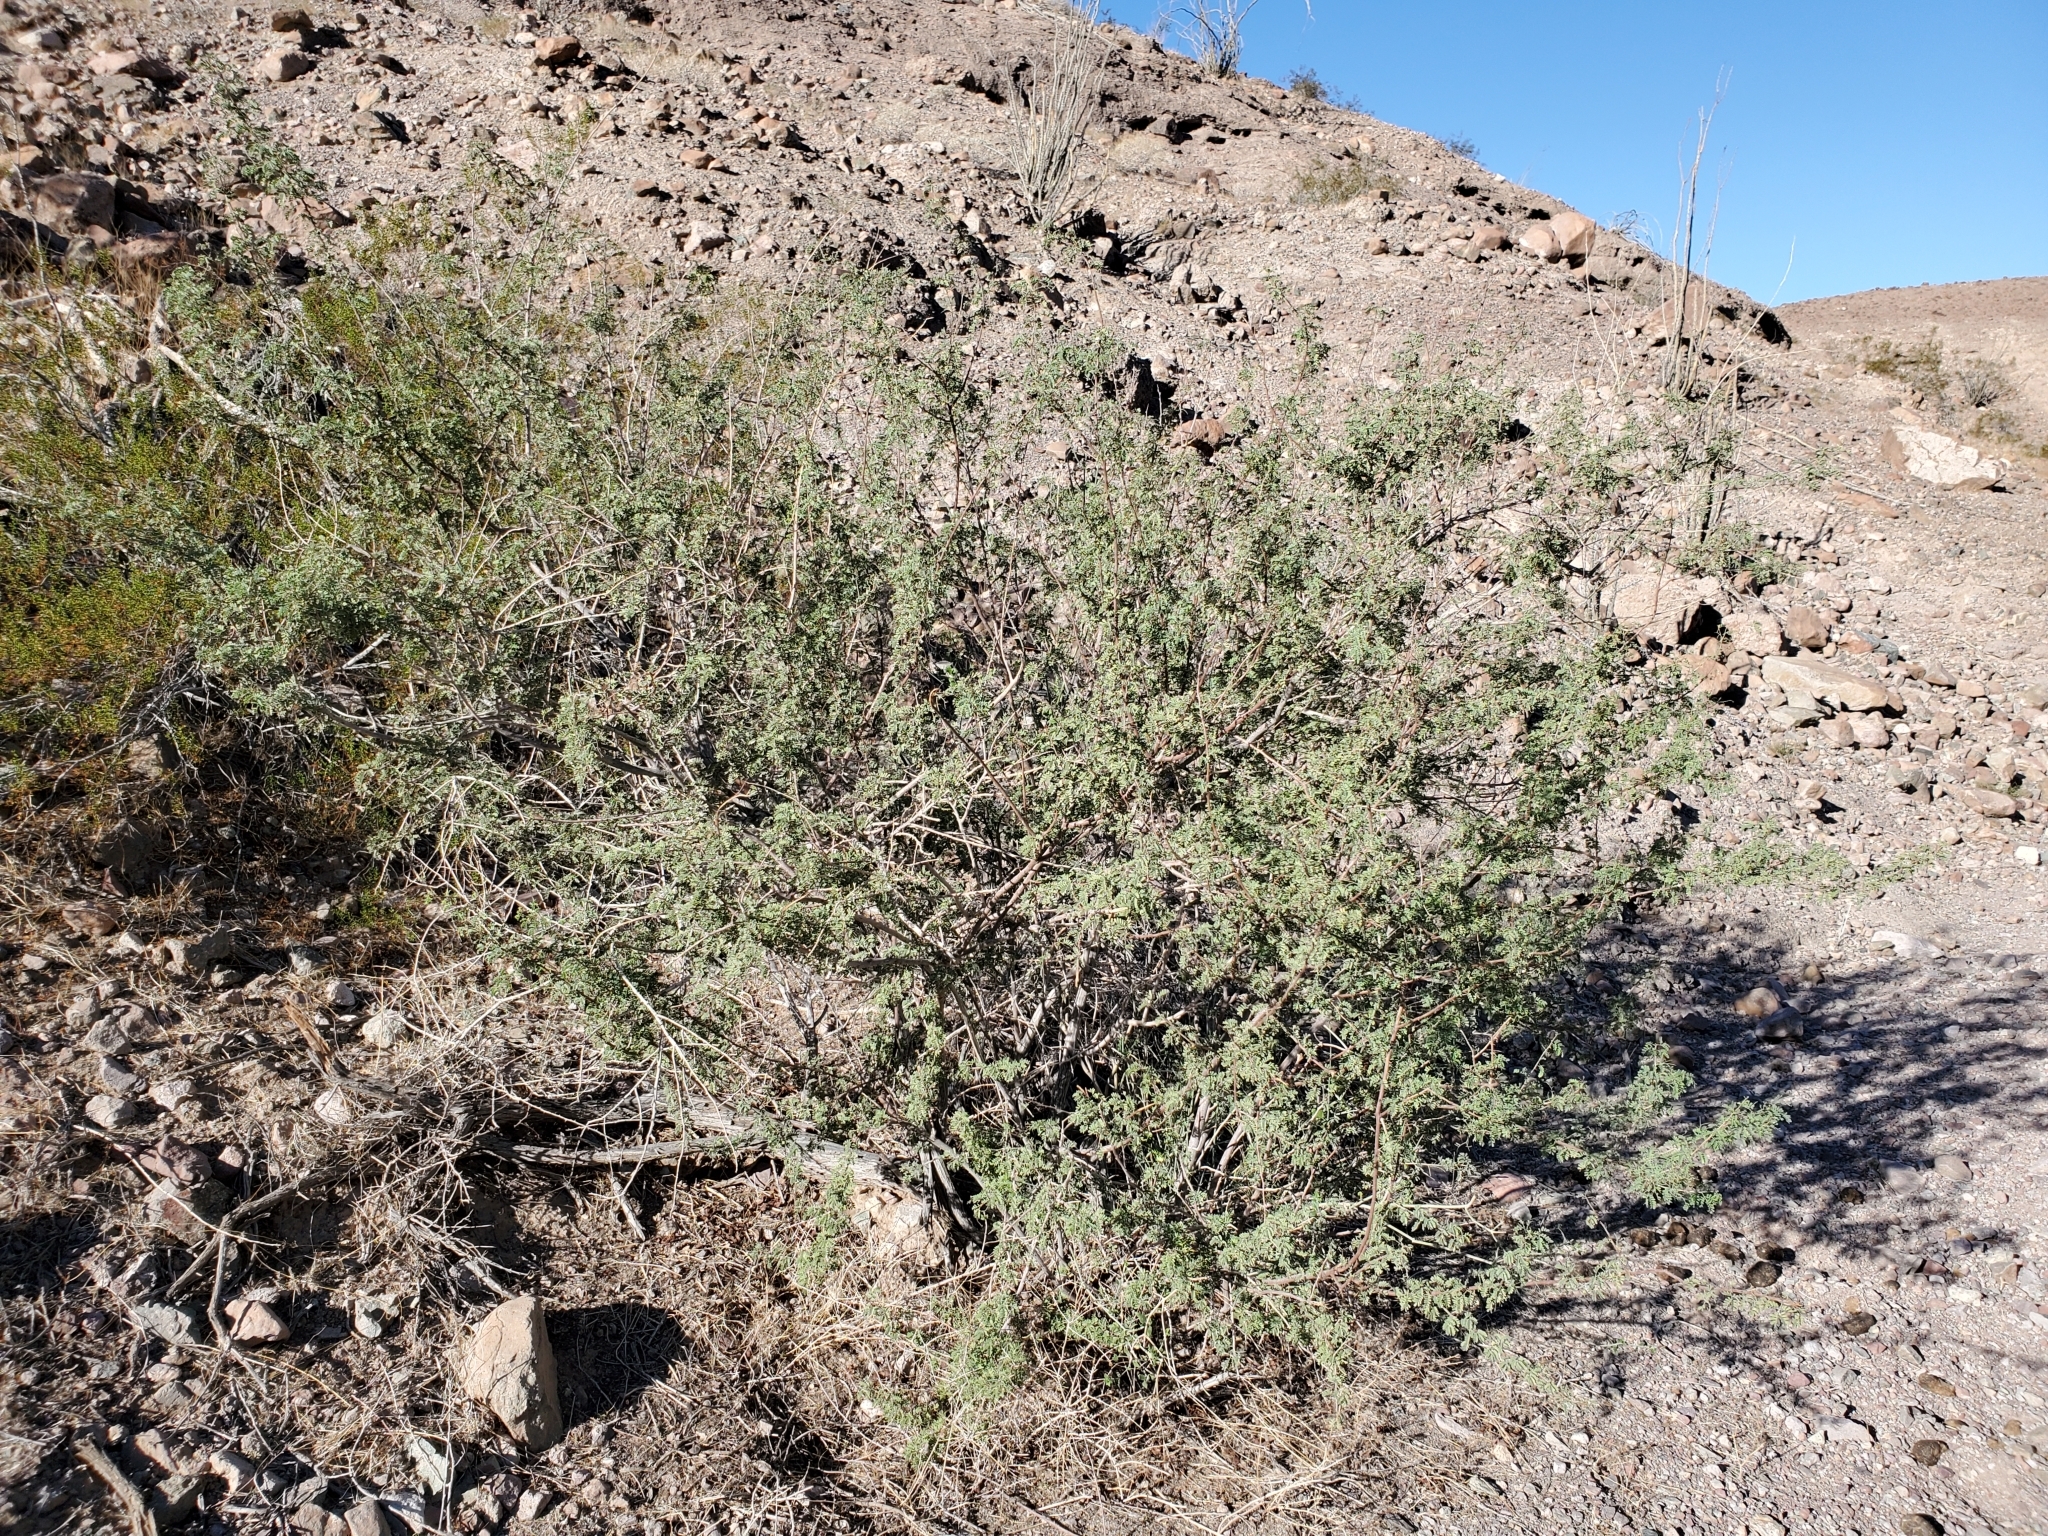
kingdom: Plantae
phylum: Tracheophyta
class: Magnoliopsida
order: Fabales
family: Fabaceae
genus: Senegalia
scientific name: Senegalia greggii
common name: Texas-mimosa
